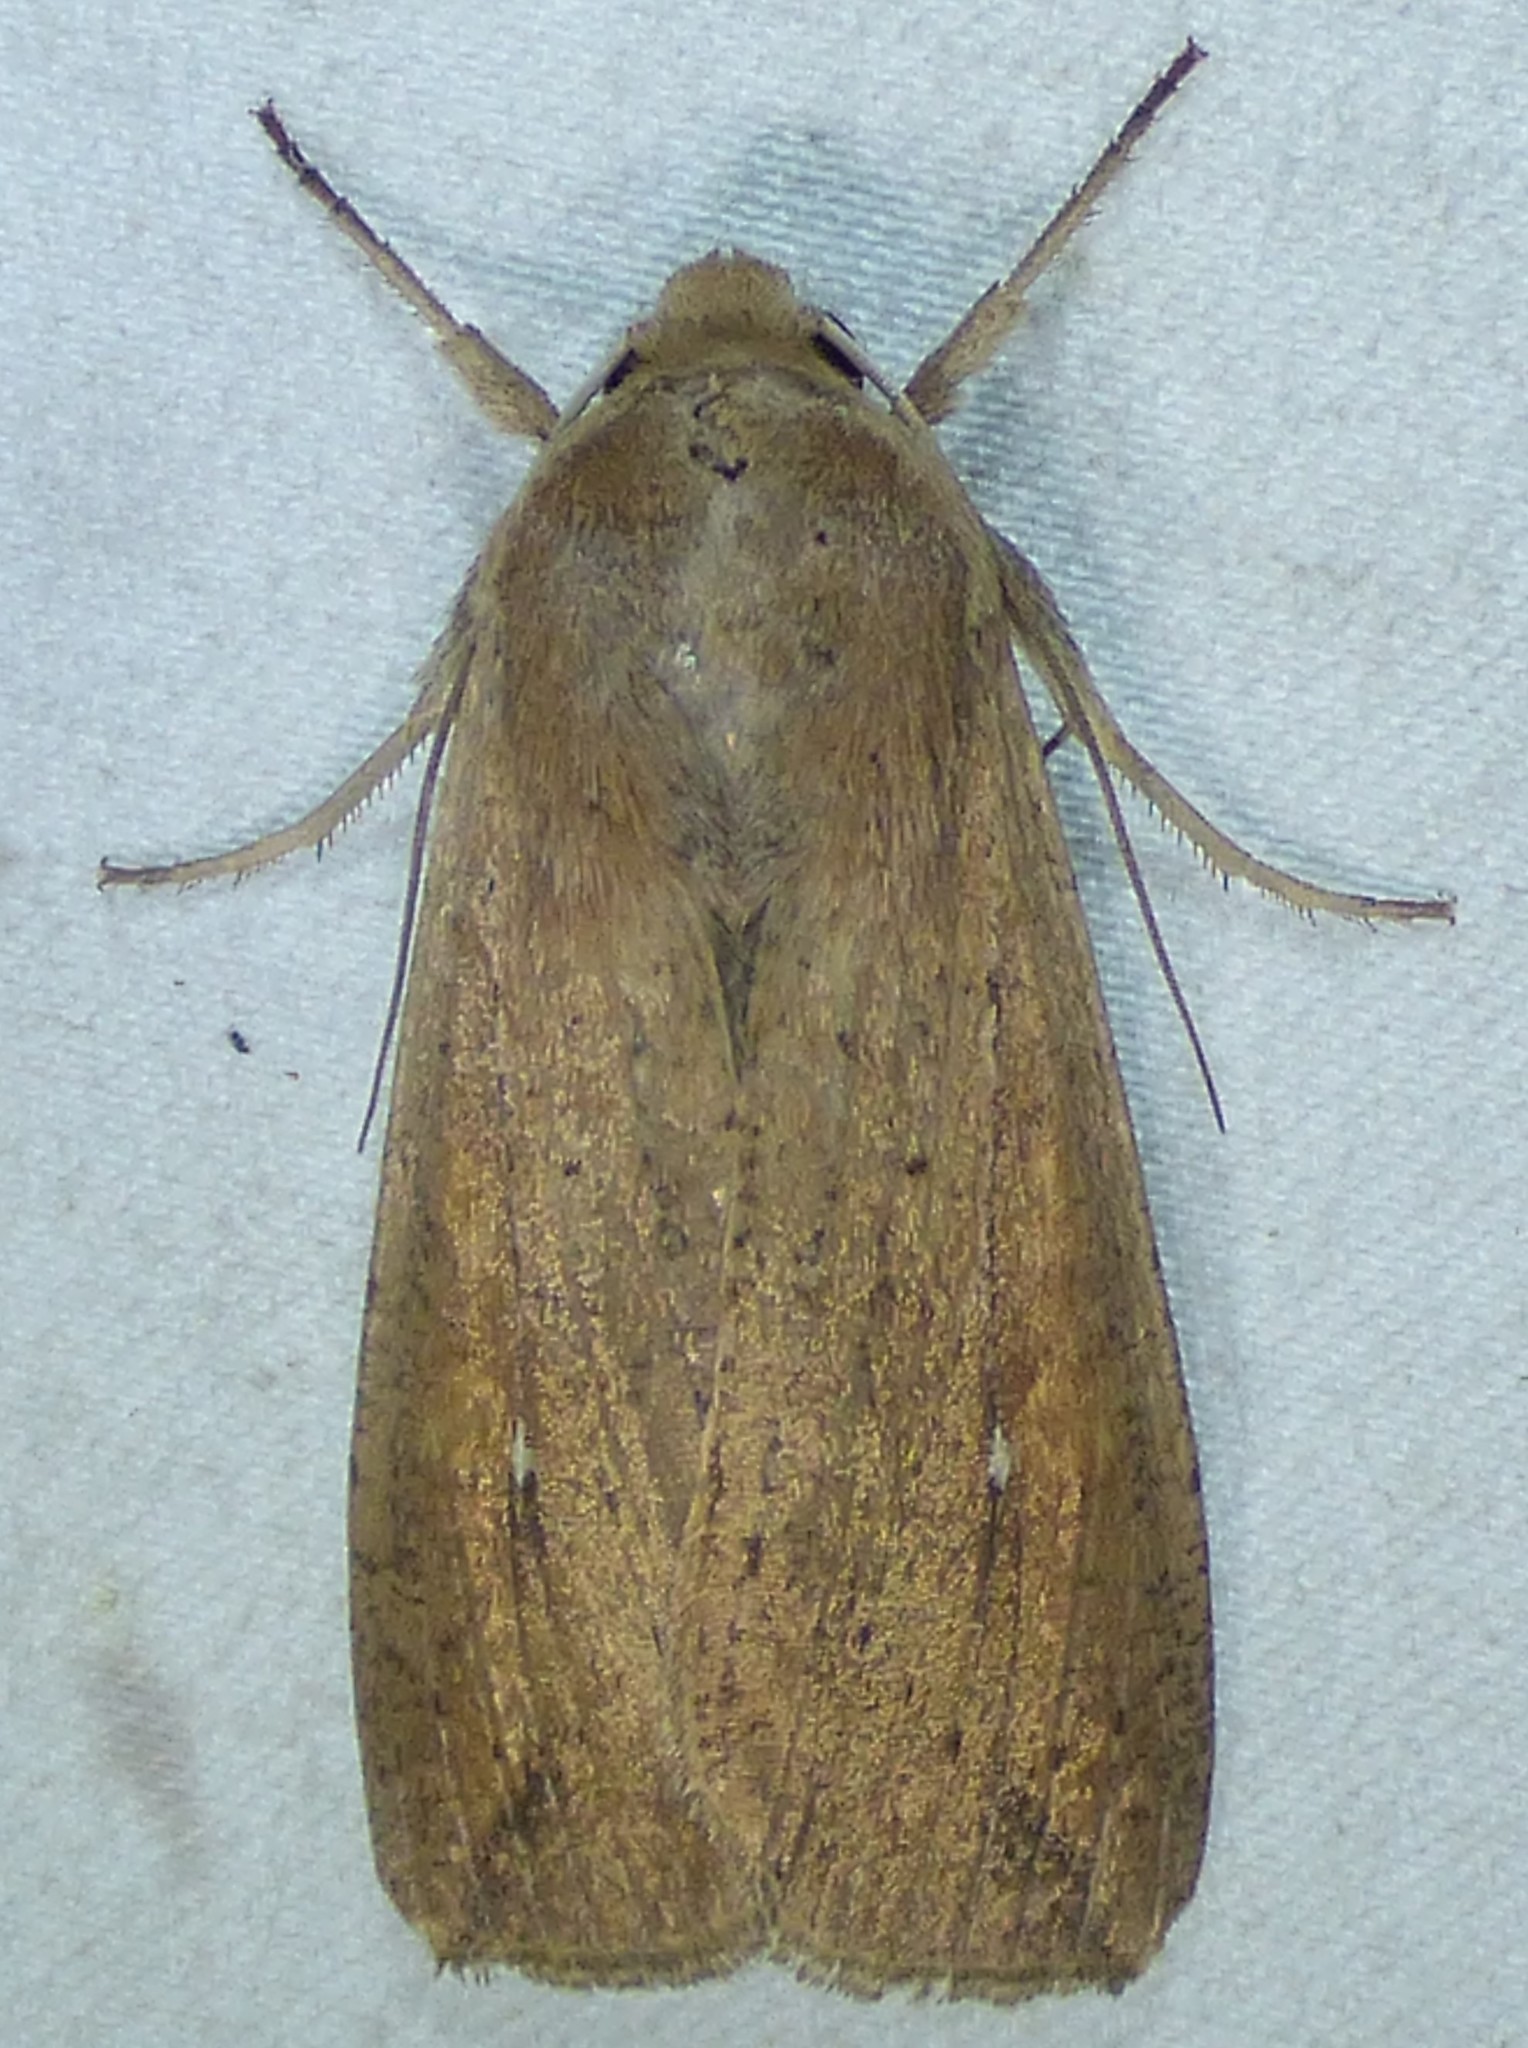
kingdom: Animalia
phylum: Arthropoda
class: Insecta
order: Lepidoptera
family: Noctuidae
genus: Mythimna
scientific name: Mythimna unipuncta
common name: White-speck
